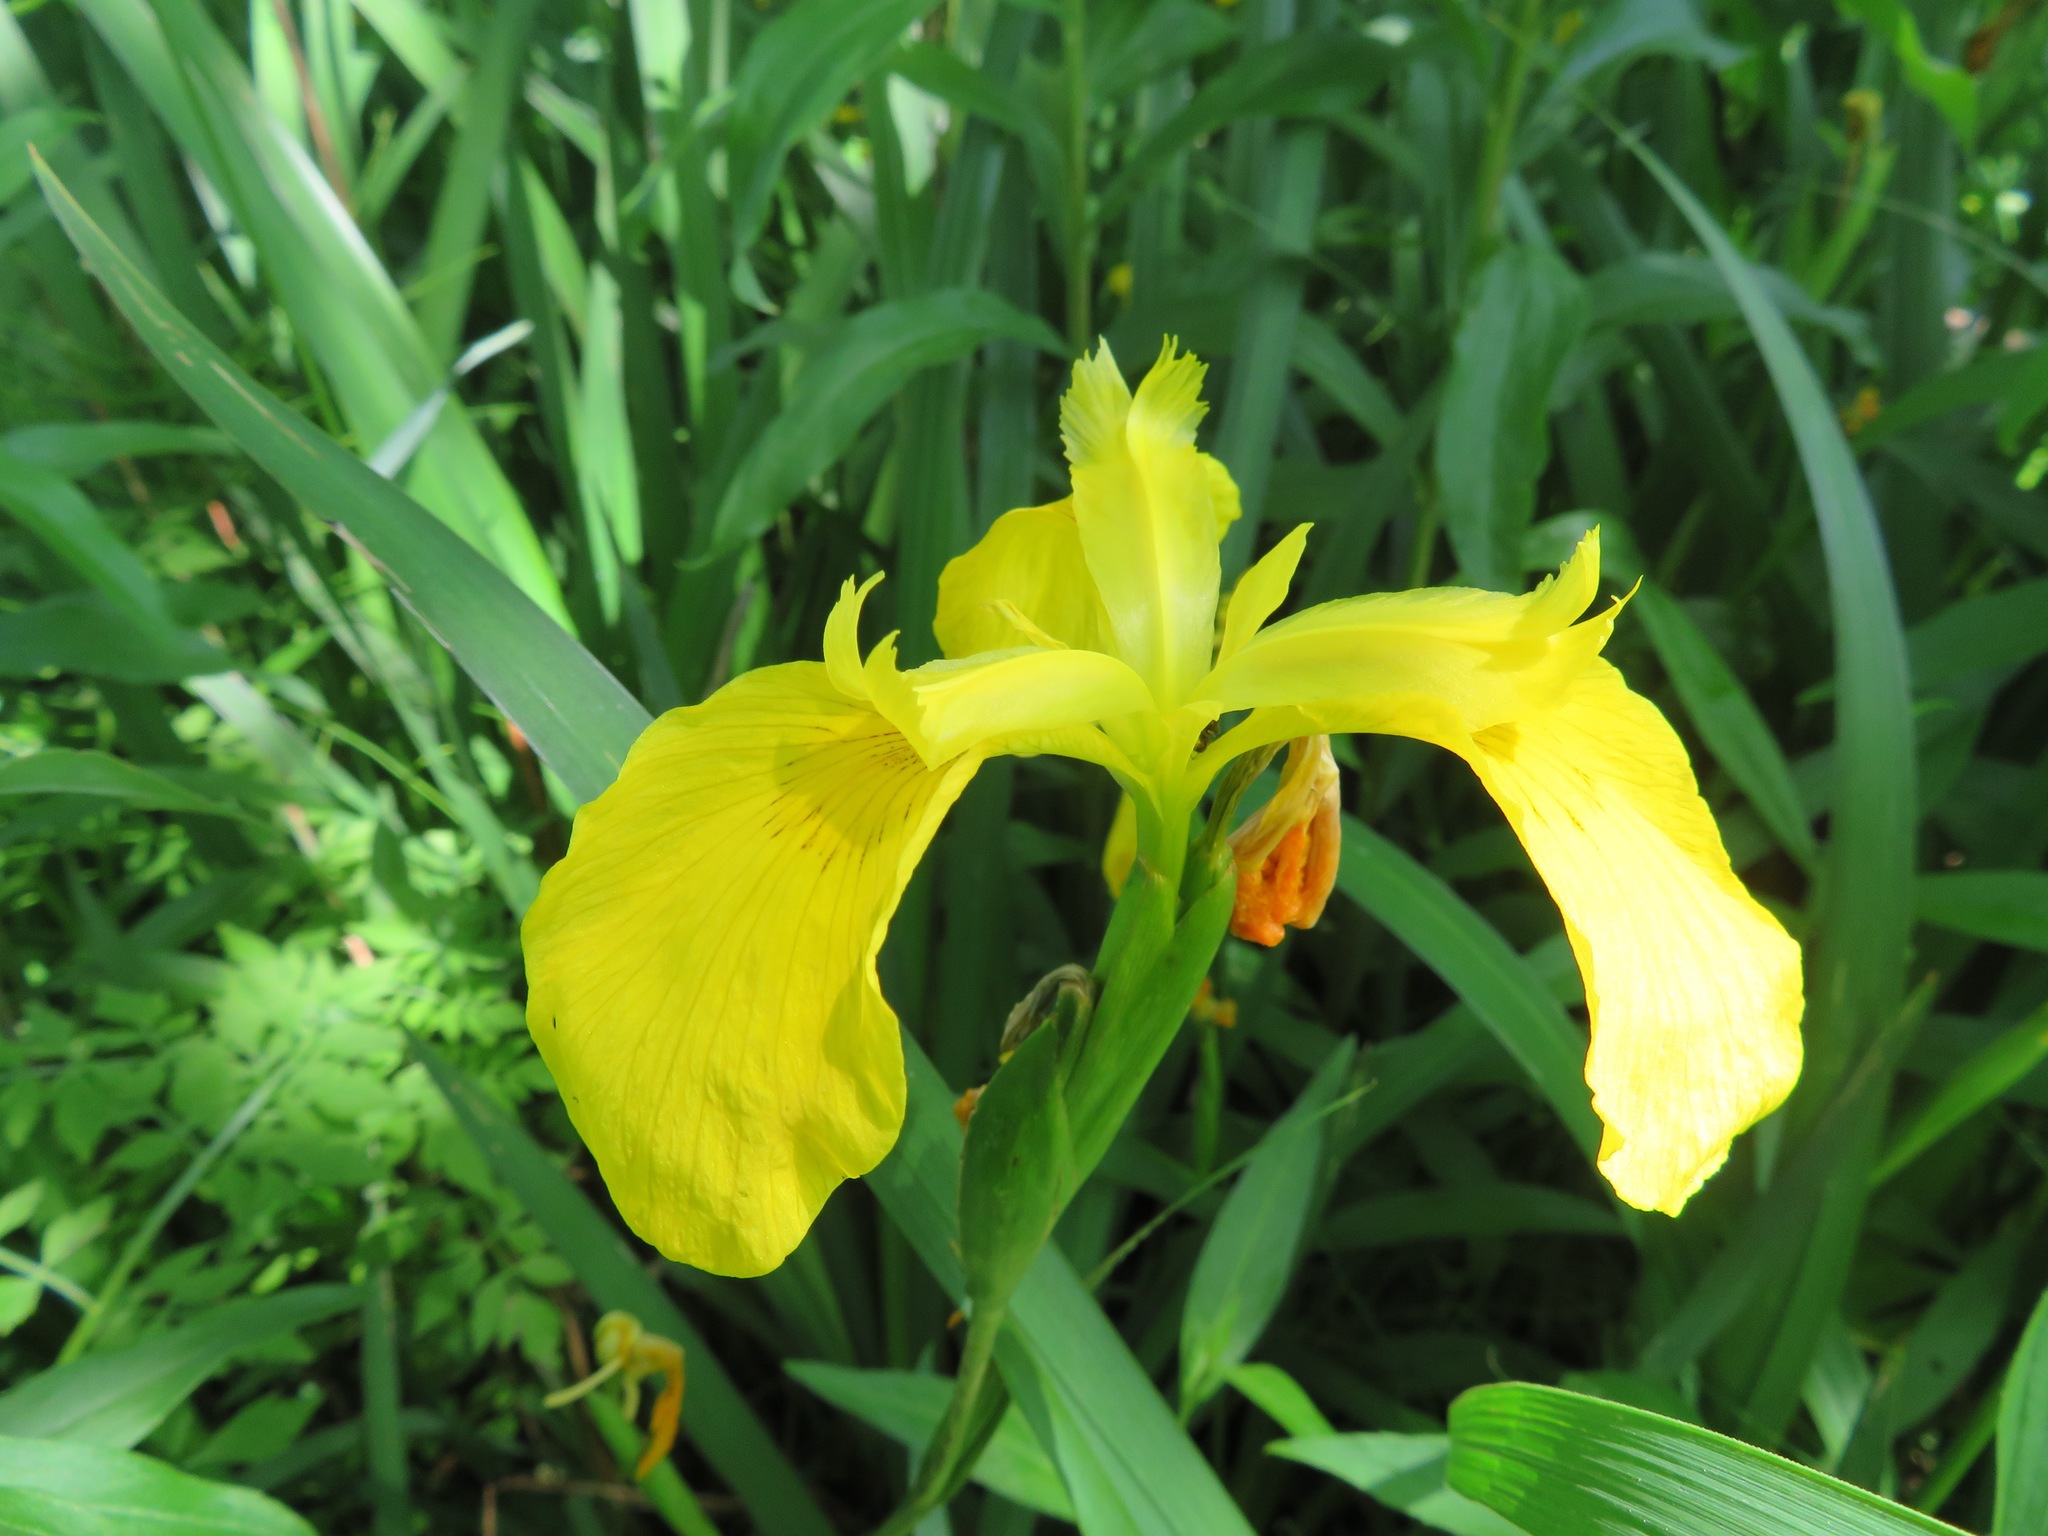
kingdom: Plantae
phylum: Tracheophyta
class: Liliopsida
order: Asparagales
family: Iridaceae
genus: Iris
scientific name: Iris pseudacorus
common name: Yellow flag
